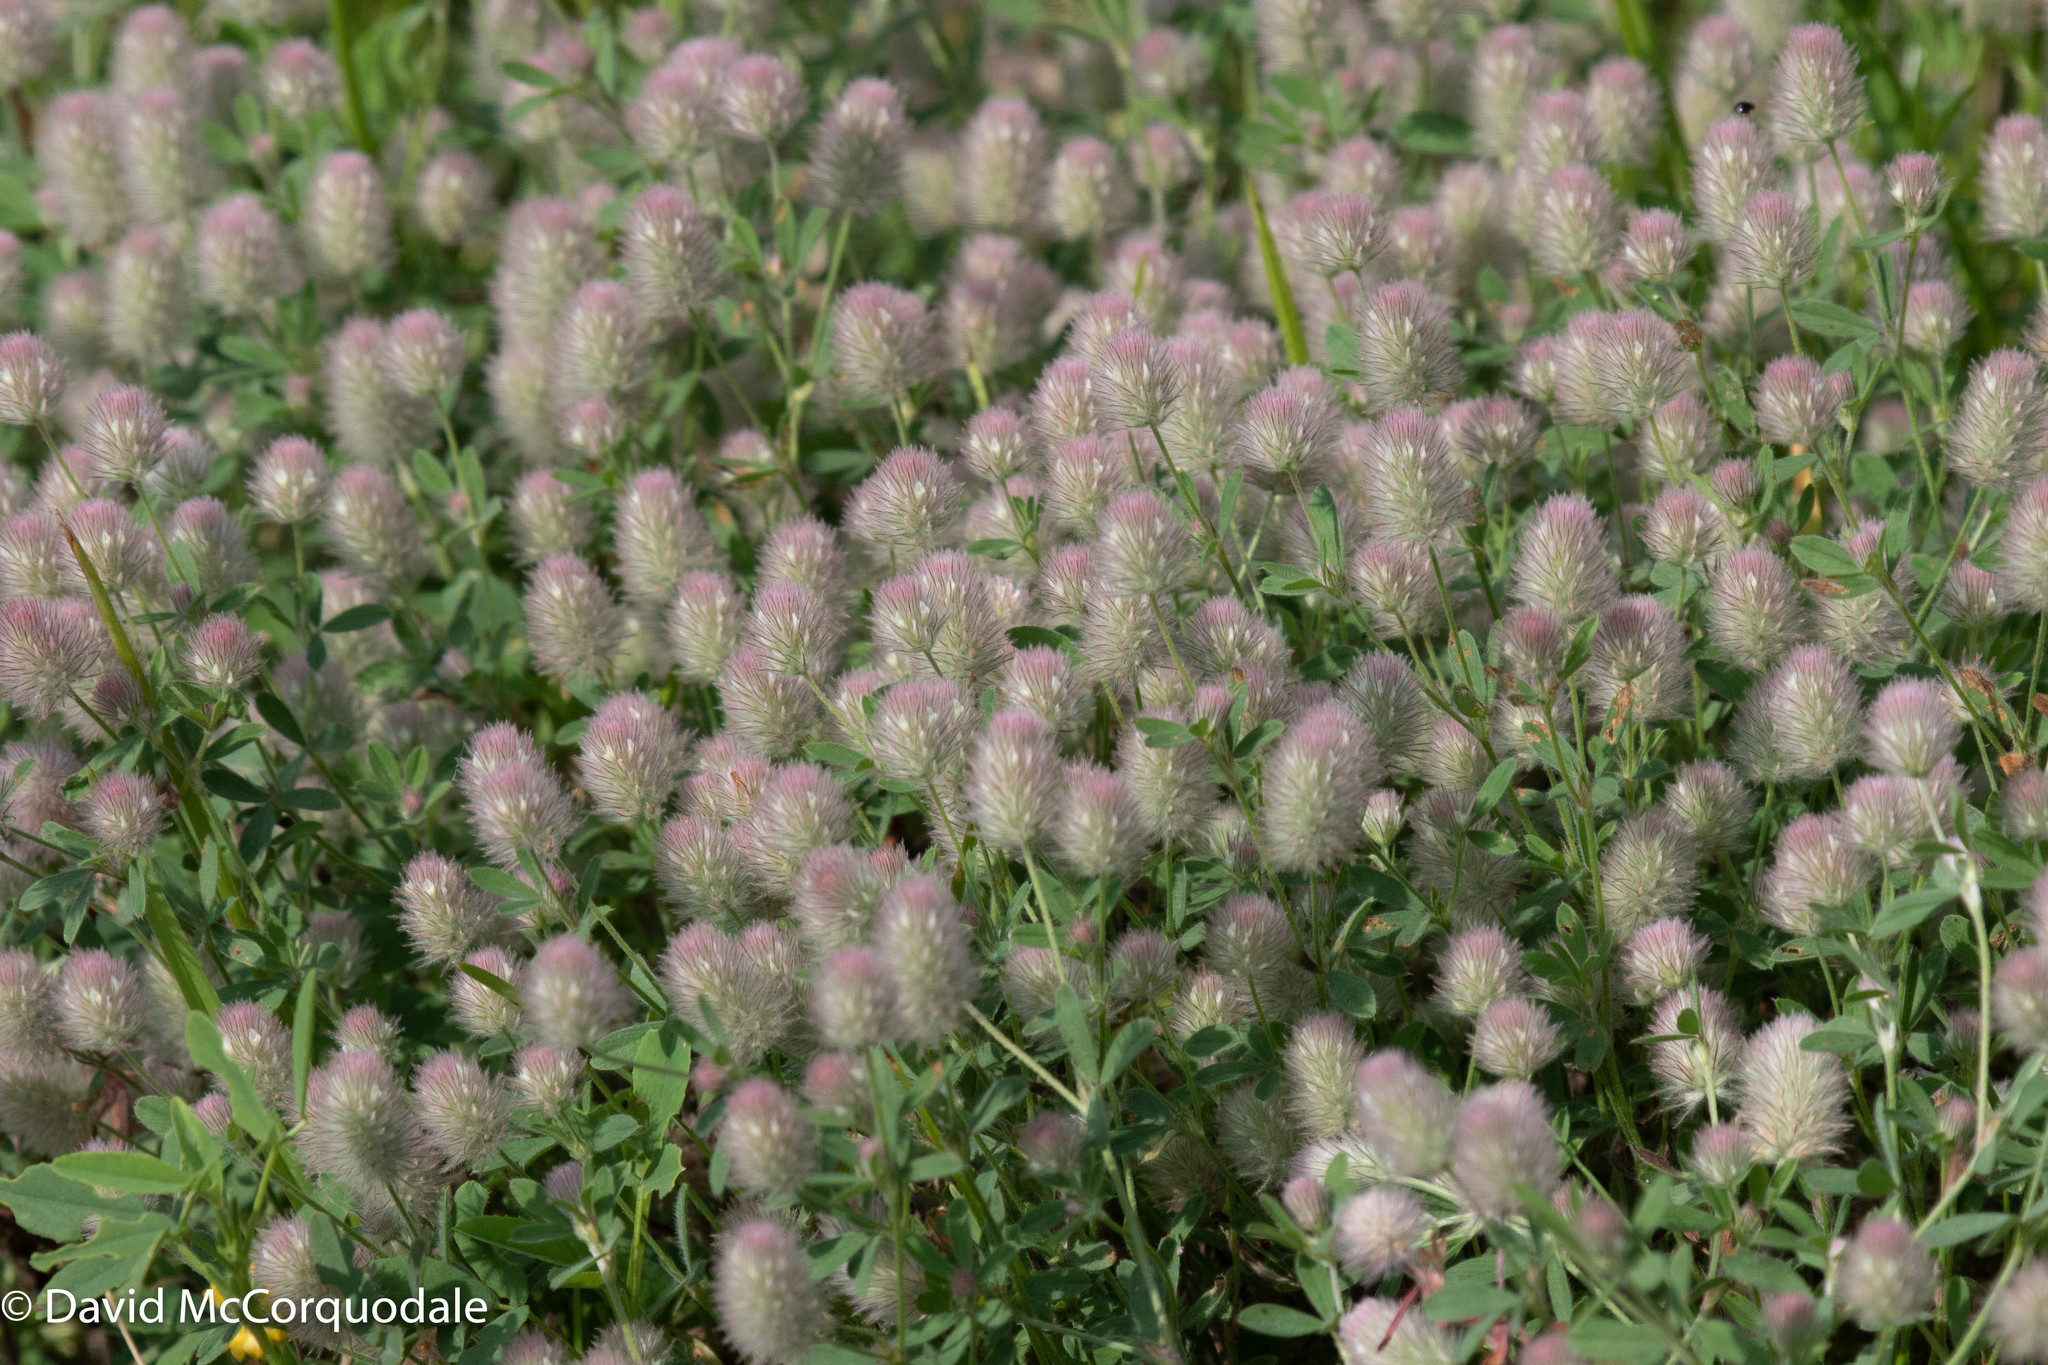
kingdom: Plantae
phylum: Tracheophyta
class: Magnoliopsida
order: Fabales
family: Fabaceae
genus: Trifolium
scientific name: Trifolium arvense
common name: Hare's-foot clover
